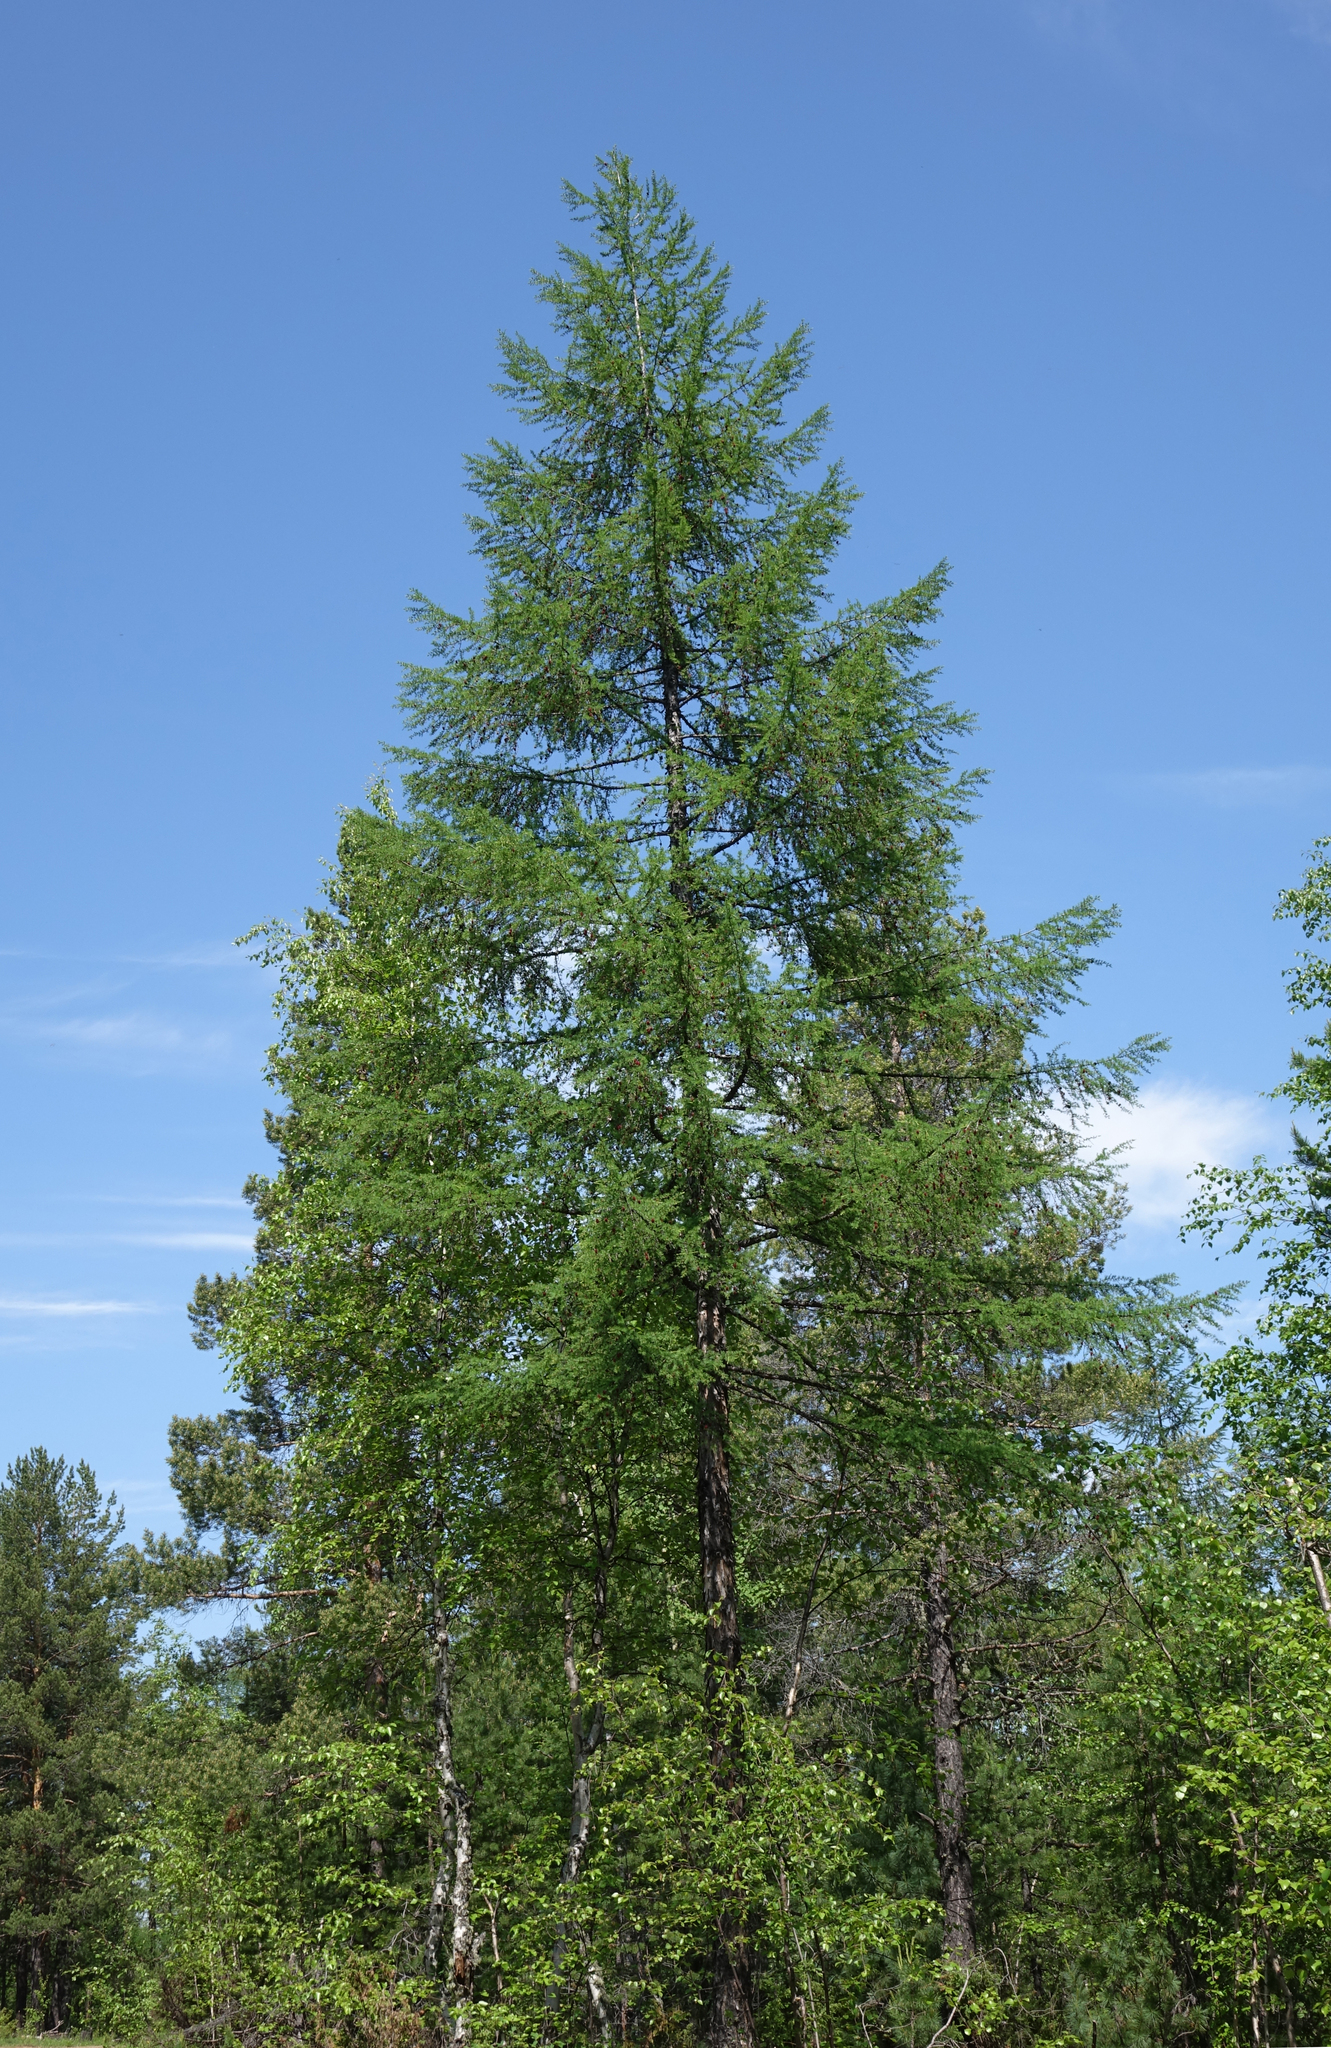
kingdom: Plantae
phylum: Tracheophyta
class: Pinopsida
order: Pinales
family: Pinaceae
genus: Larix
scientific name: Larix gmelinii
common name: Dahurian larch
